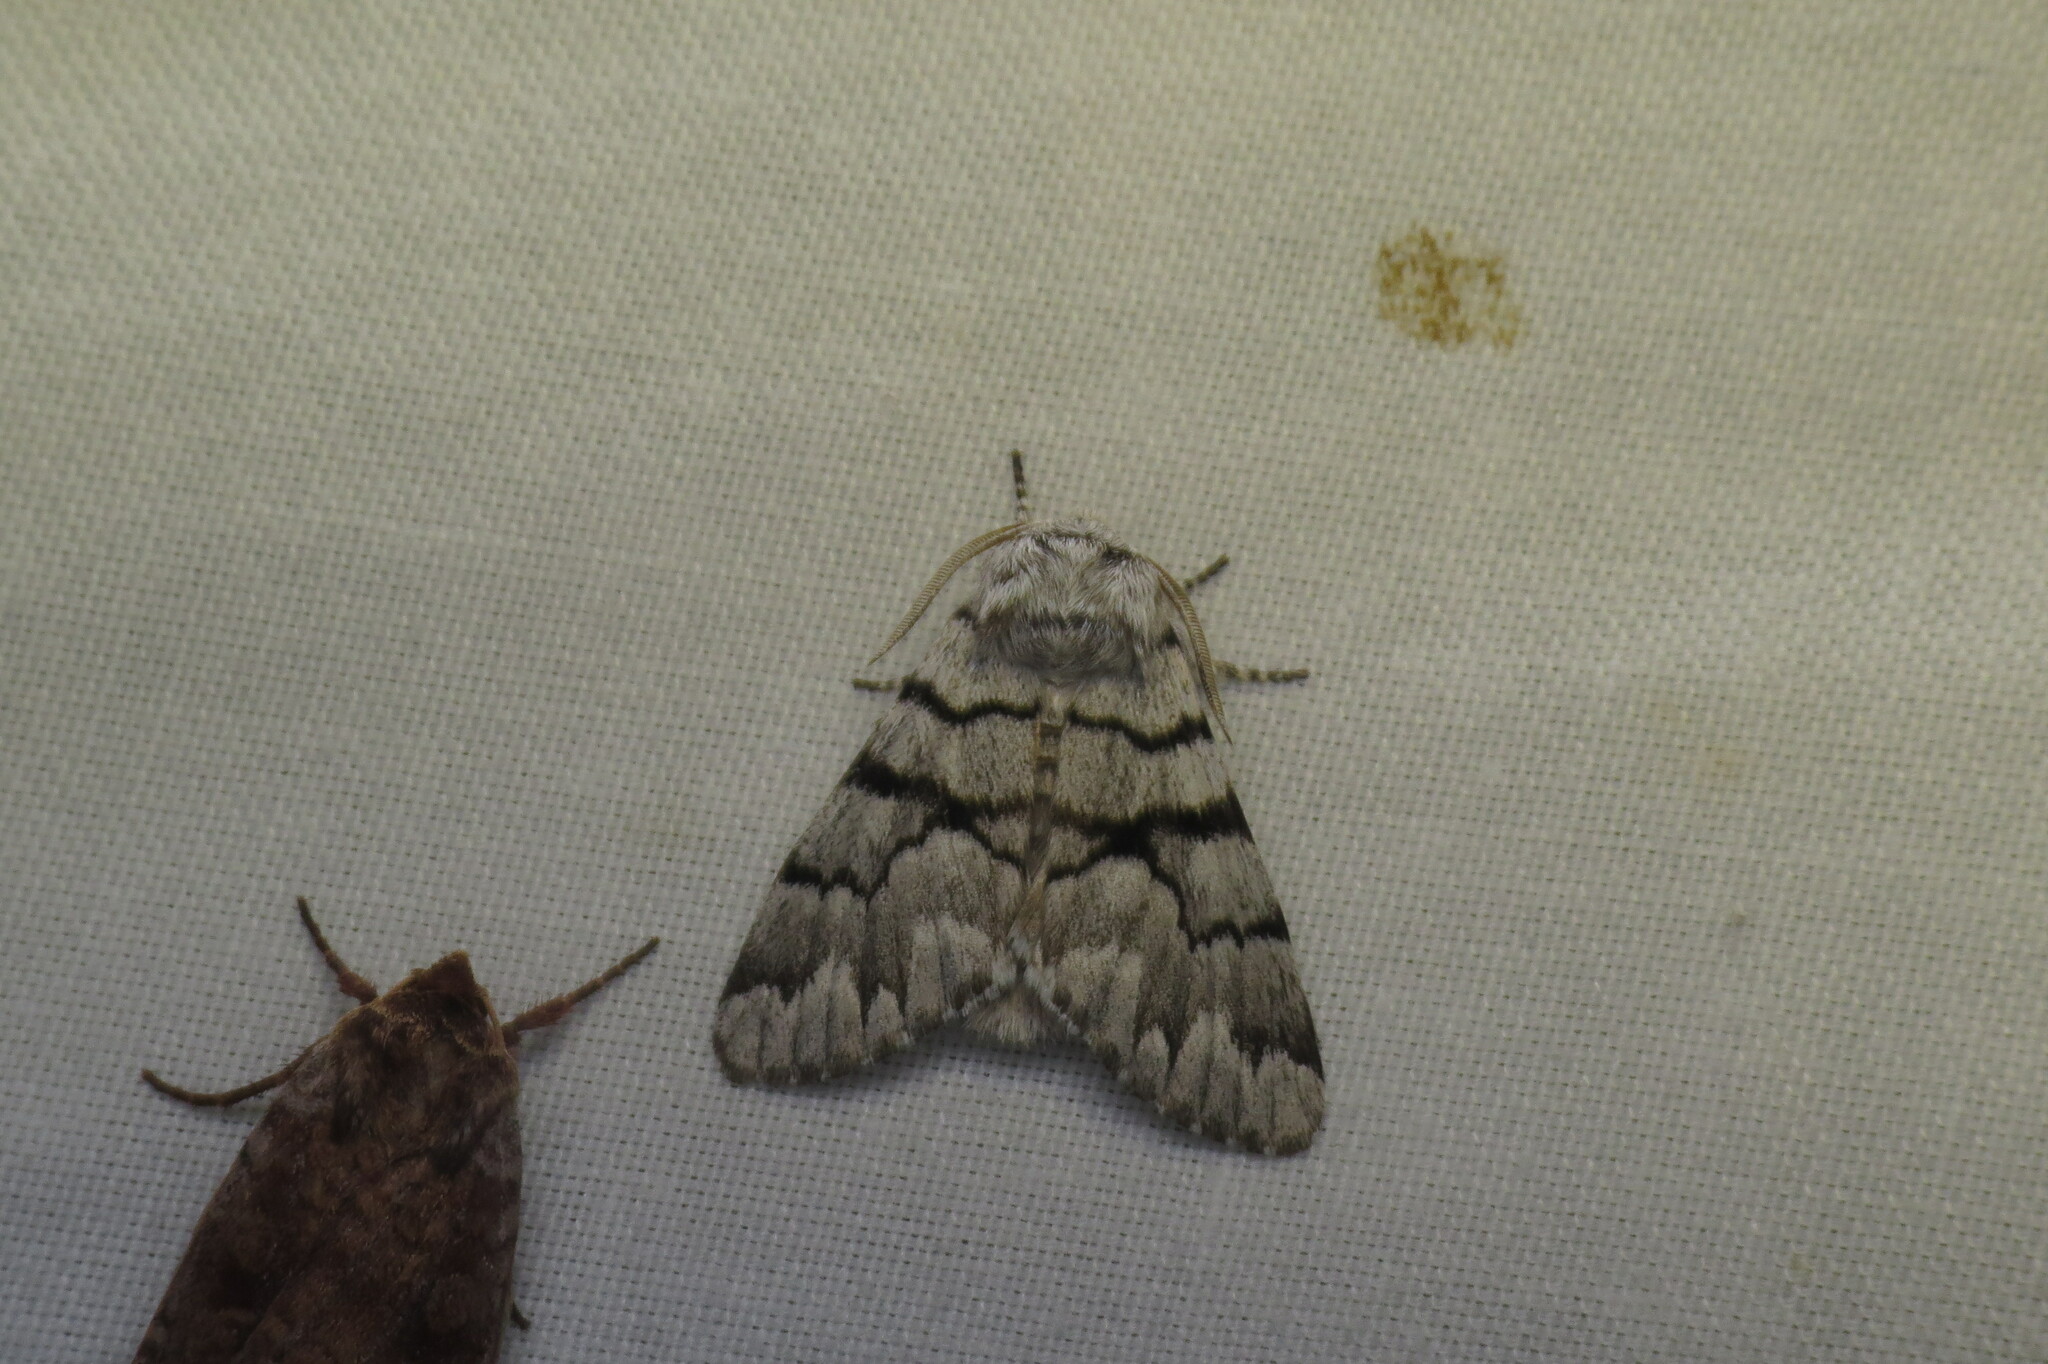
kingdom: Animalia
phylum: Arthropoda
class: Insecta
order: Lepidoptera
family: Noctuidae
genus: Panthea
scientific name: Panthea furcilla
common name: Eastern panthea moth
